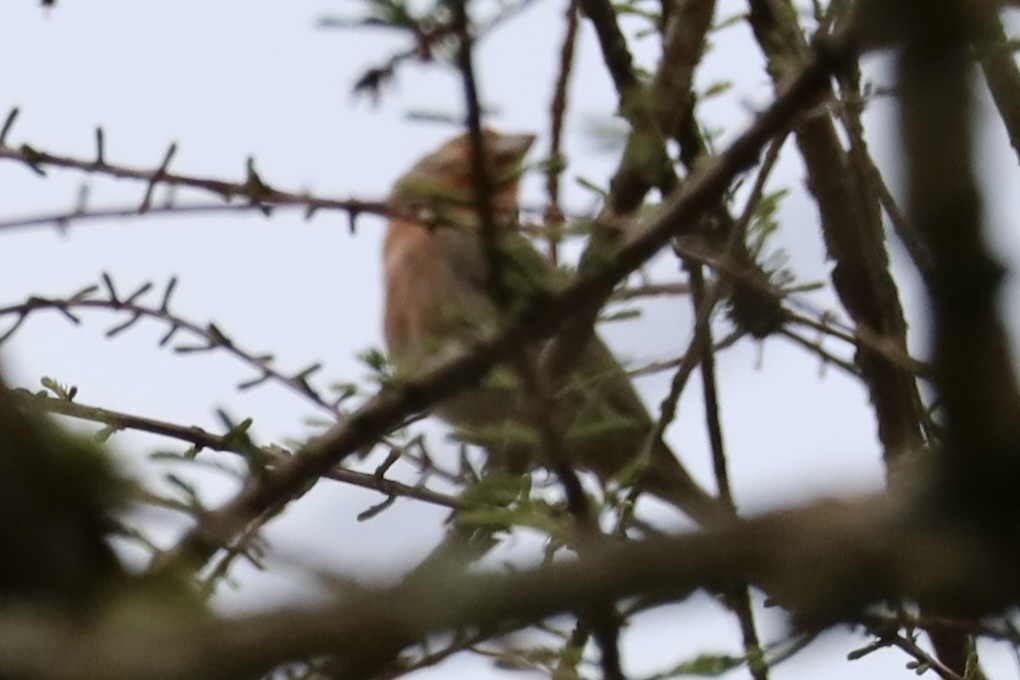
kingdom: Animalia
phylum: Chordata
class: Aves
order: Passeriformes
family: Fringillidae
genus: Haemorhous
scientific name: Haemorhous mexicanus
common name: House finch
